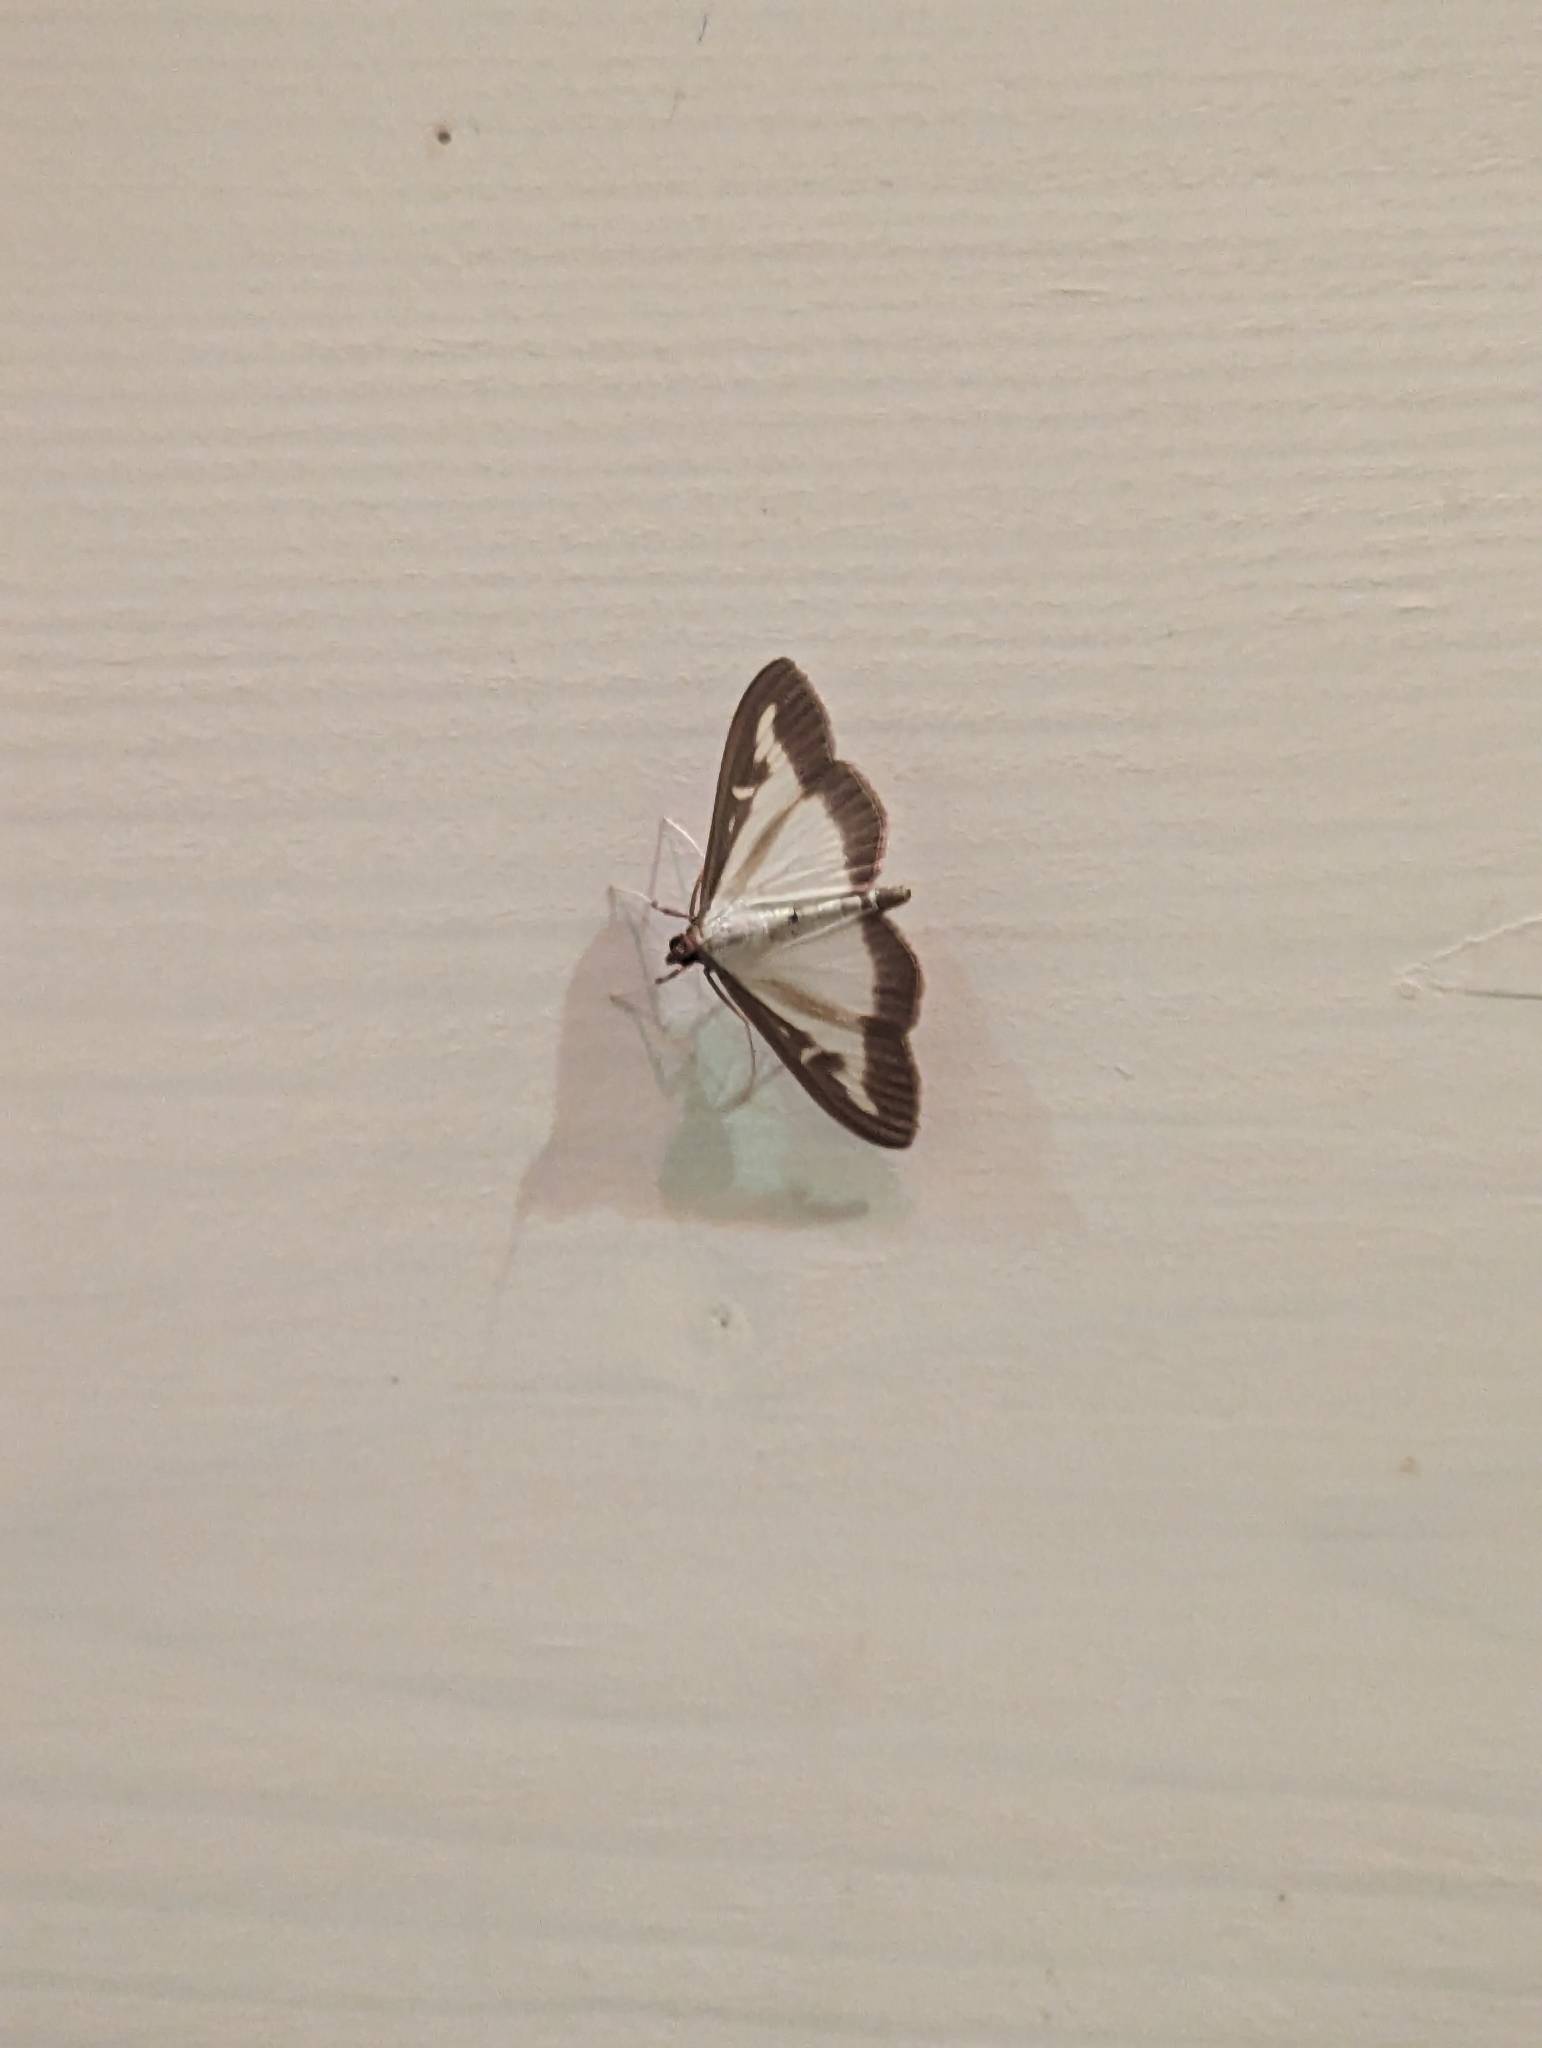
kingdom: Animalia
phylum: Arthropoda
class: Insecta
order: Lepidoptera
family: Crambidae
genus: Cydalima
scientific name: Cydalima perspectalis
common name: Box tree moth
